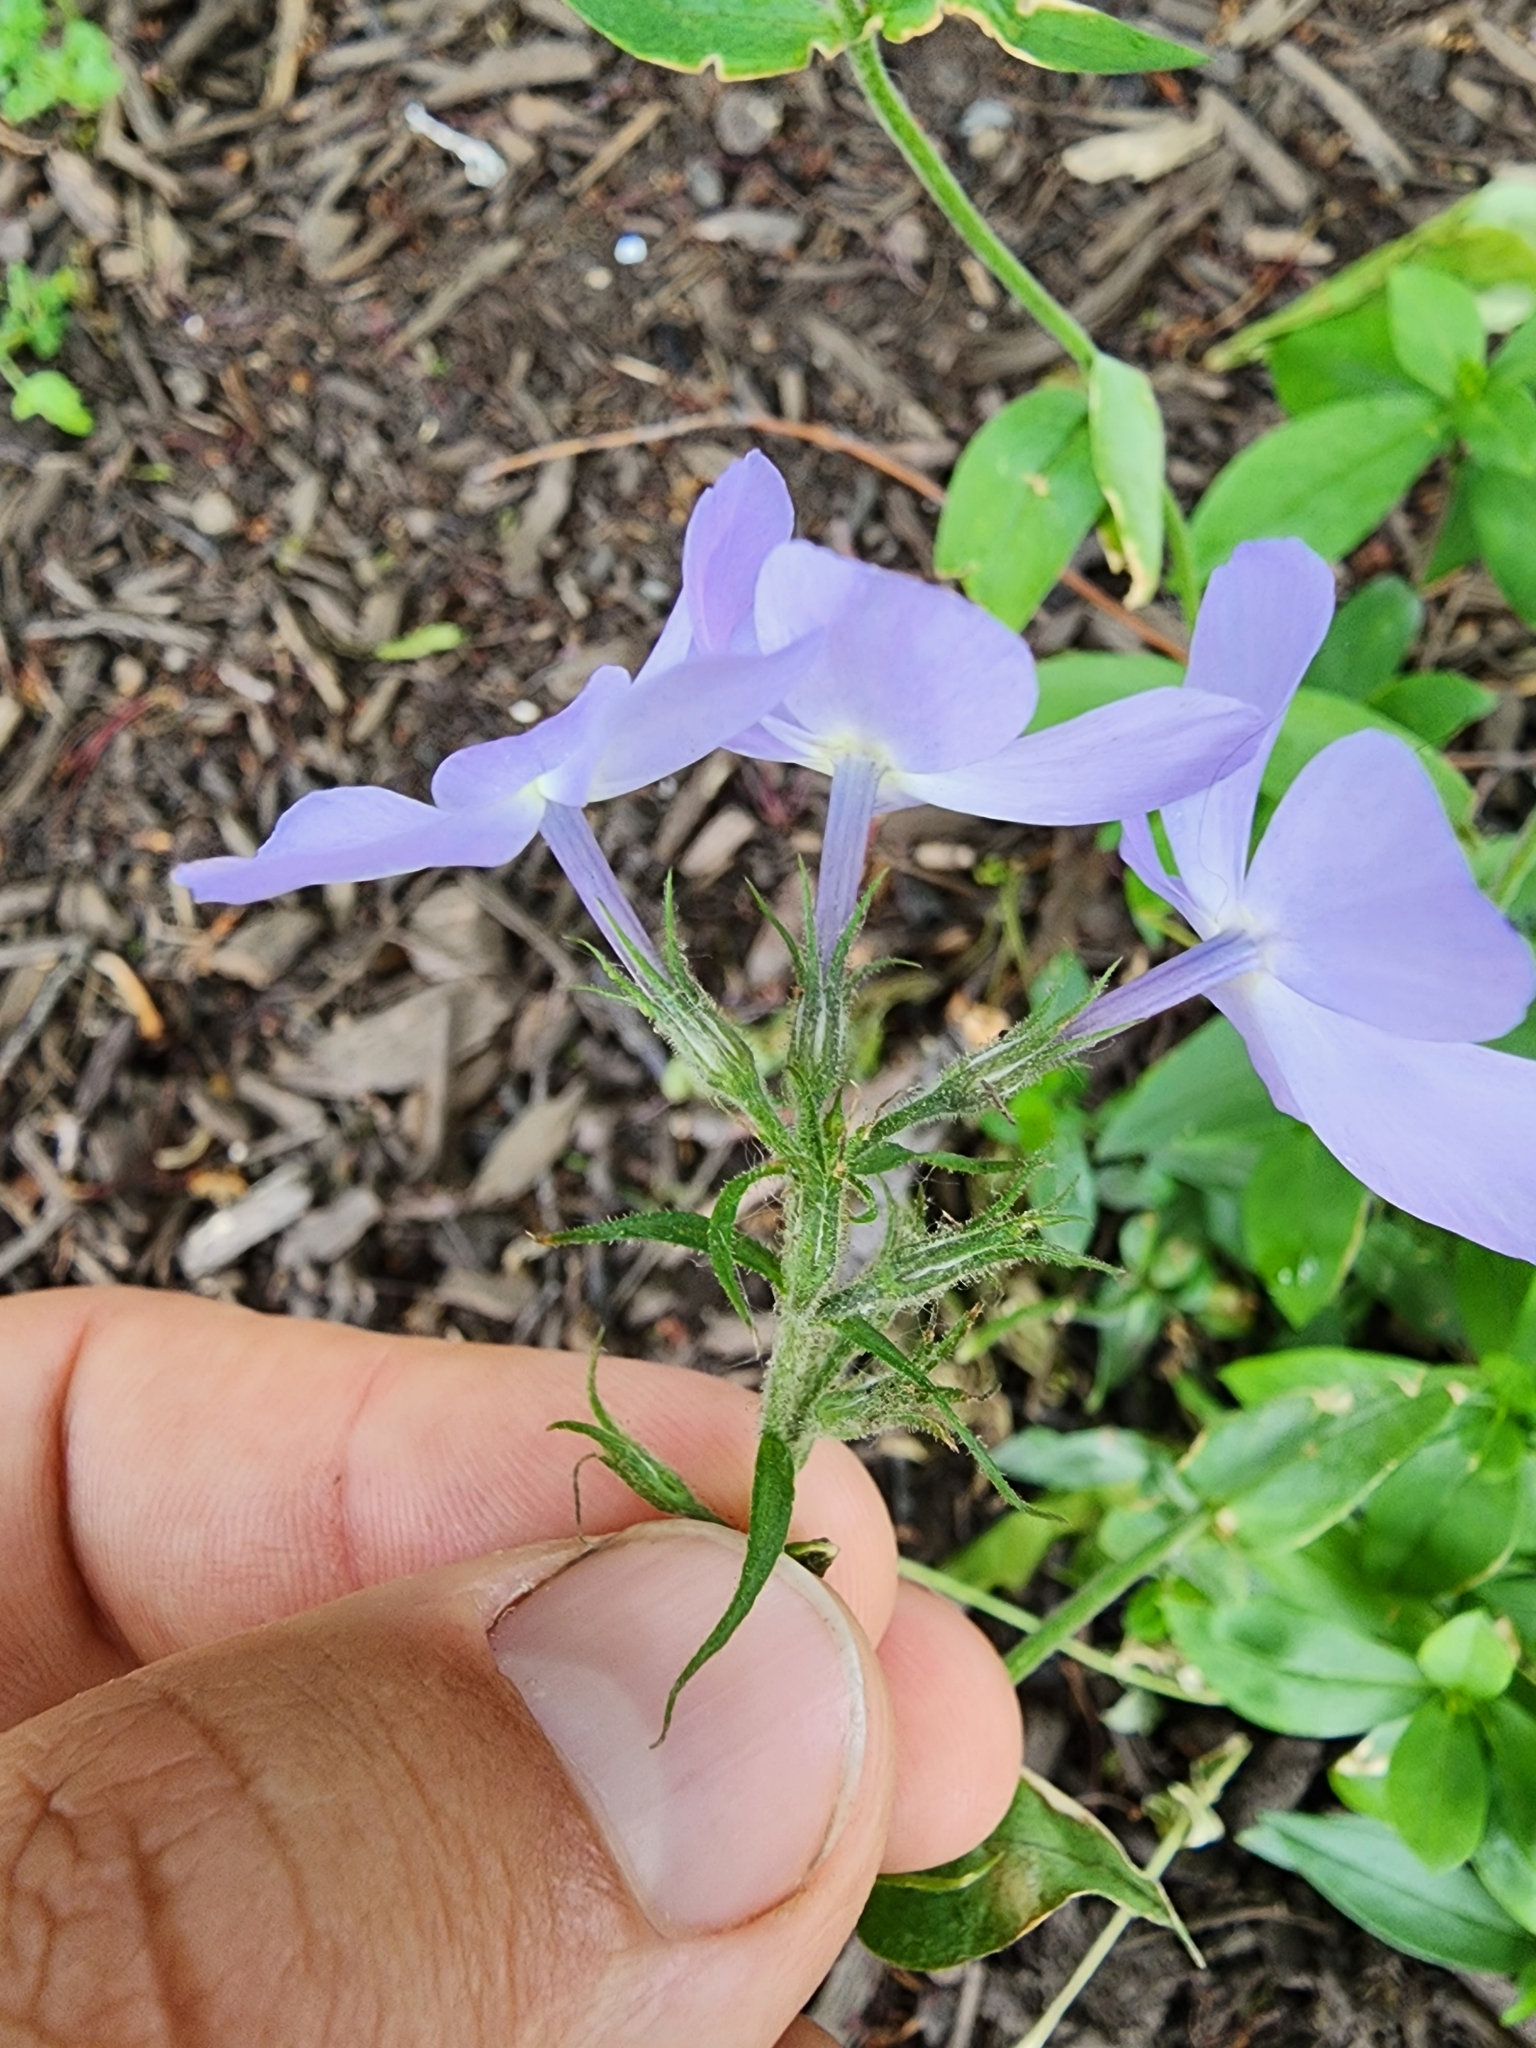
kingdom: Plantae
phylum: Tracheophyta
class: Magnoliopsida
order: Ericales
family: Polemoniaceae
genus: Phlox
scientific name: Phlox divaricata
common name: Blue phlox
